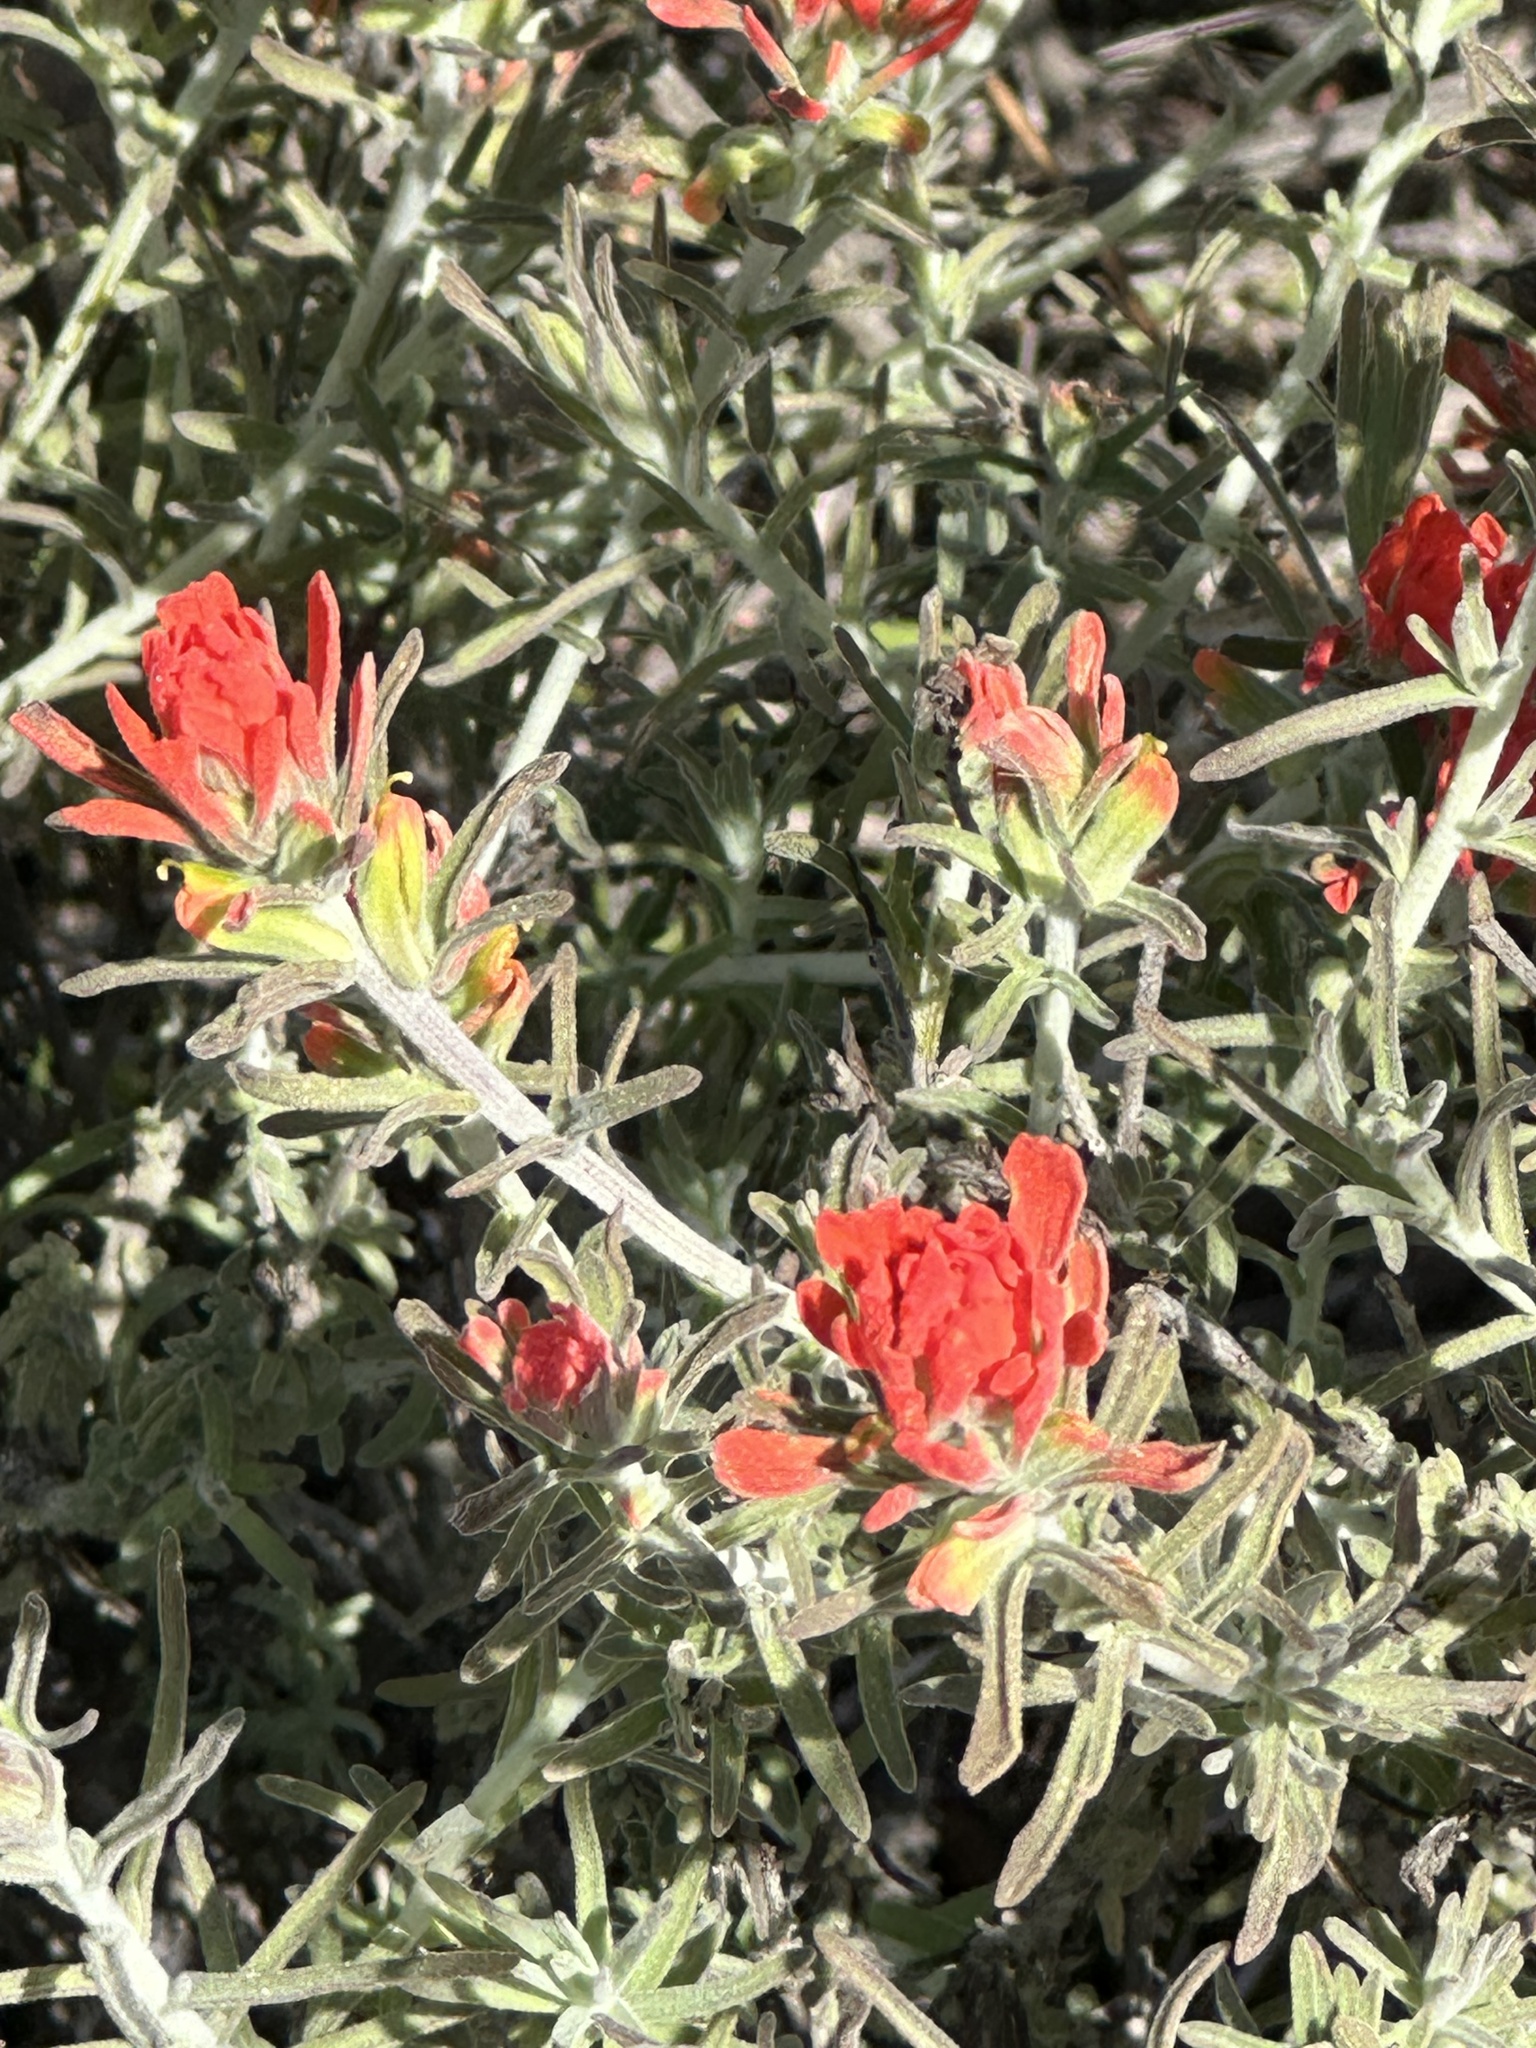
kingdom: Plantae
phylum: Tracheophyta
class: Magnoliopsida
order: Lamiales
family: Orobanchaceae
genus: Castilleja
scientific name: Castilleja foliolosa
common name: Woolly indian paintbrush
